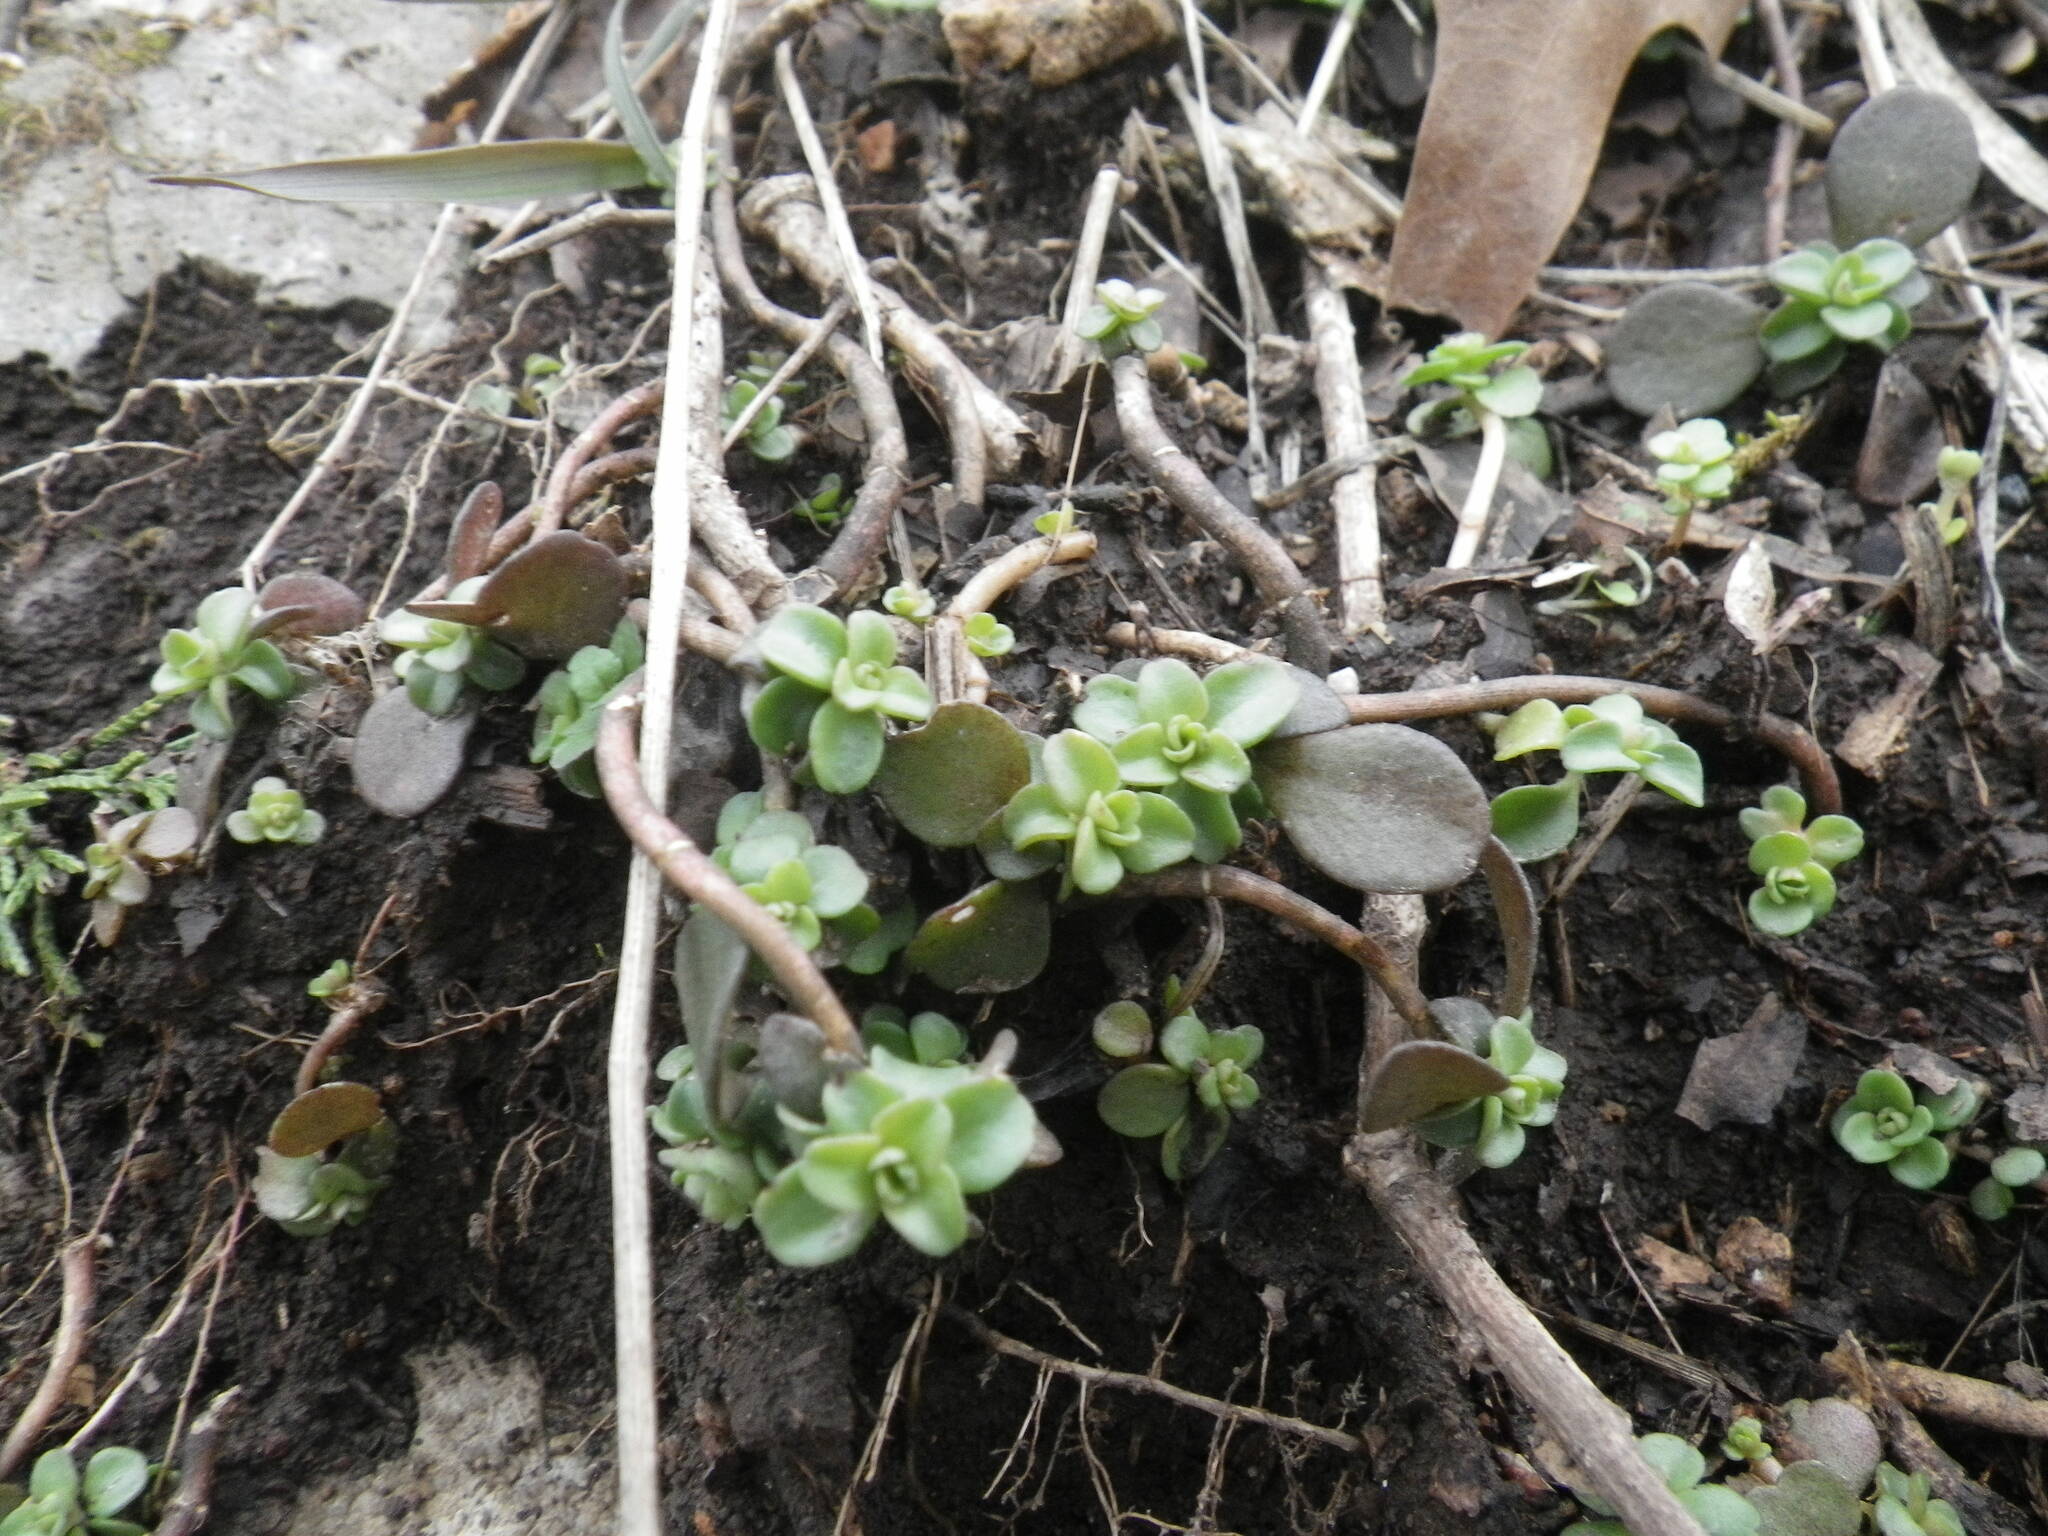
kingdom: Plantae
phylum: Tracheophyta
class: Magnoliopsida
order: Saxifragales
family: Crassulaceae
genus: Sedum
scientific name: Sedum ternatum
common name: Wild stonecrop
